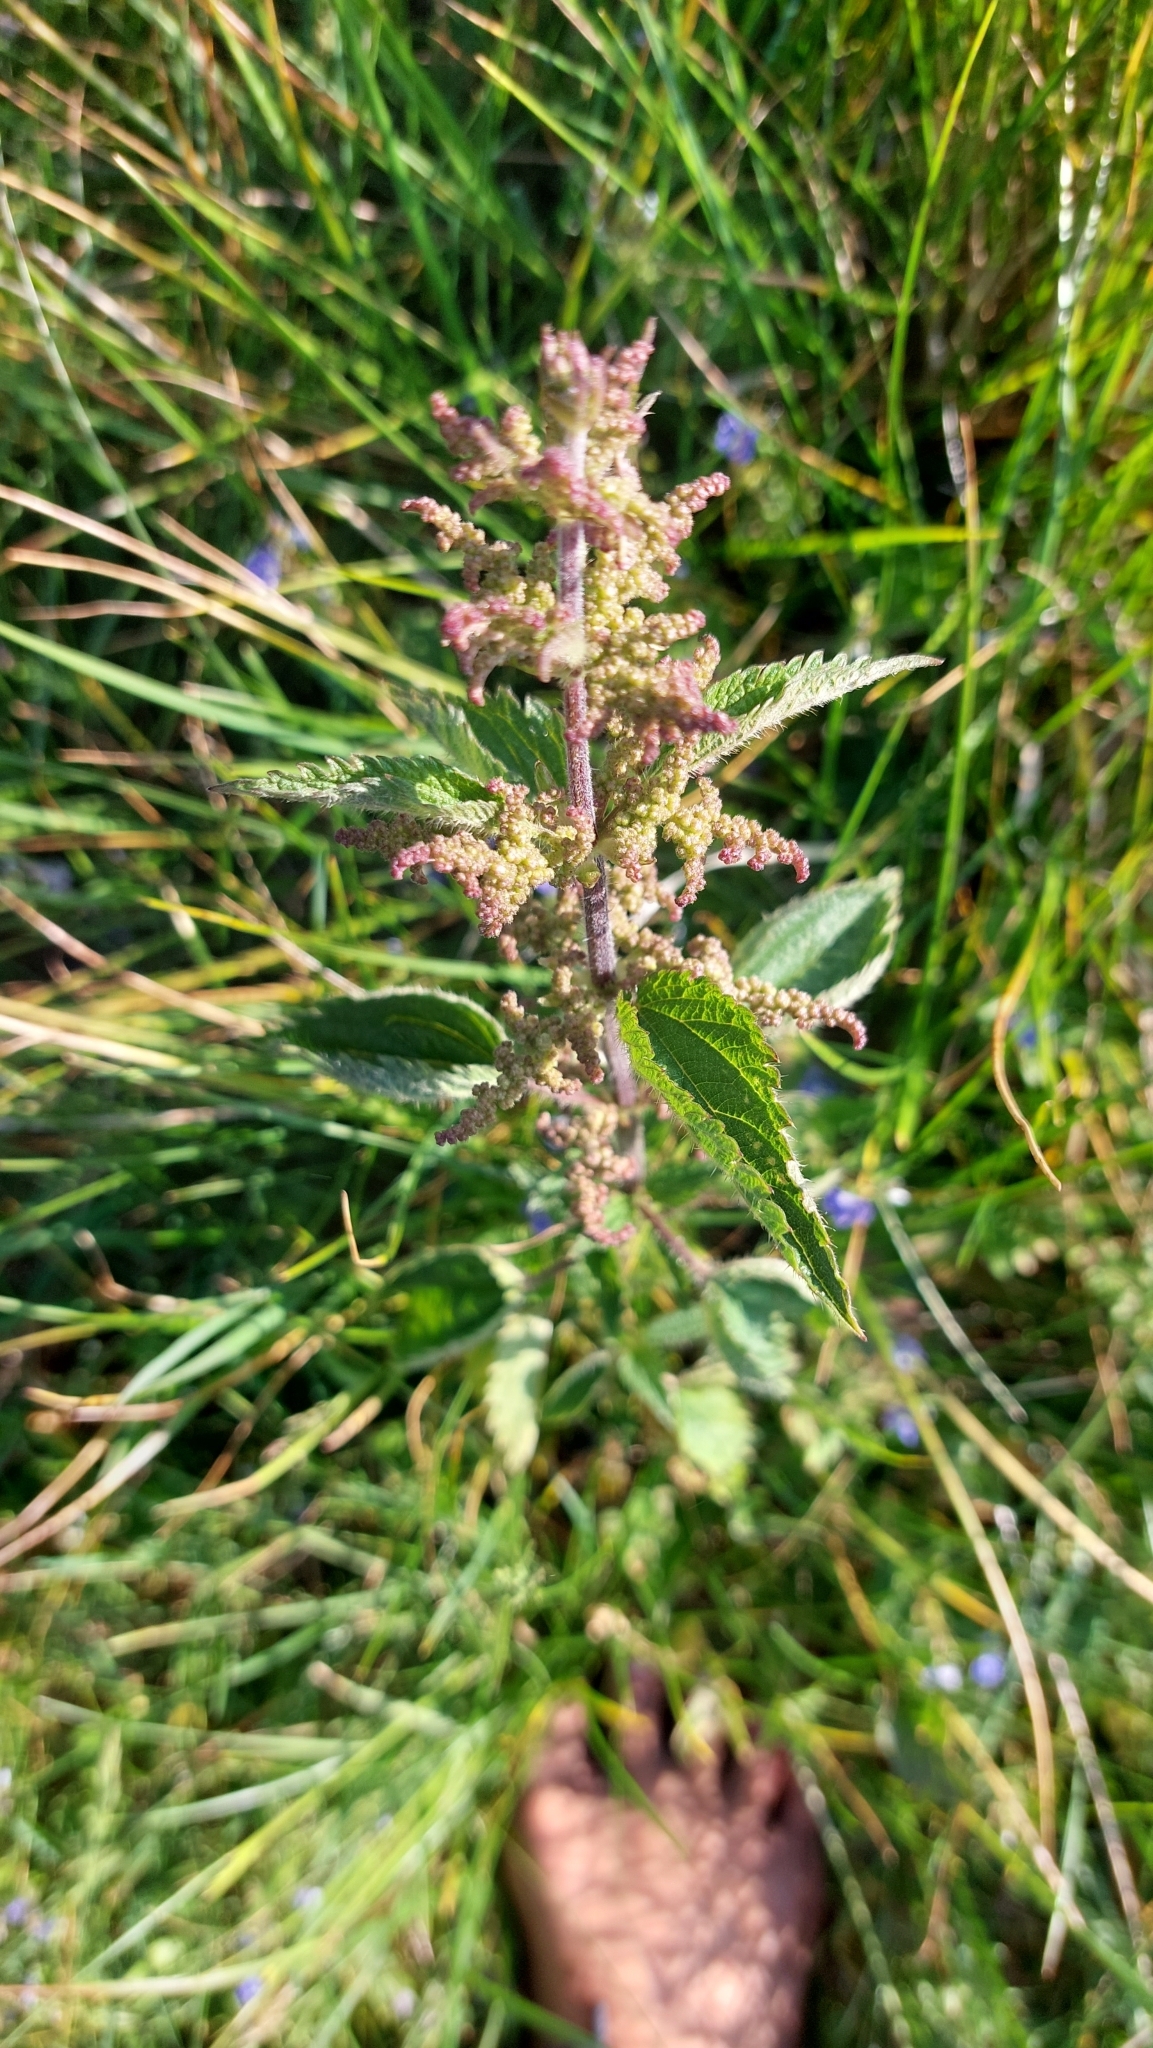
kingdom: Plantae
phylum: Tracheophyta
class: Magnoliopsida
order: Rosales
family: Urticaceae
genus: Urtica
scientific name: Urtica dioica
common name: Common nettle
